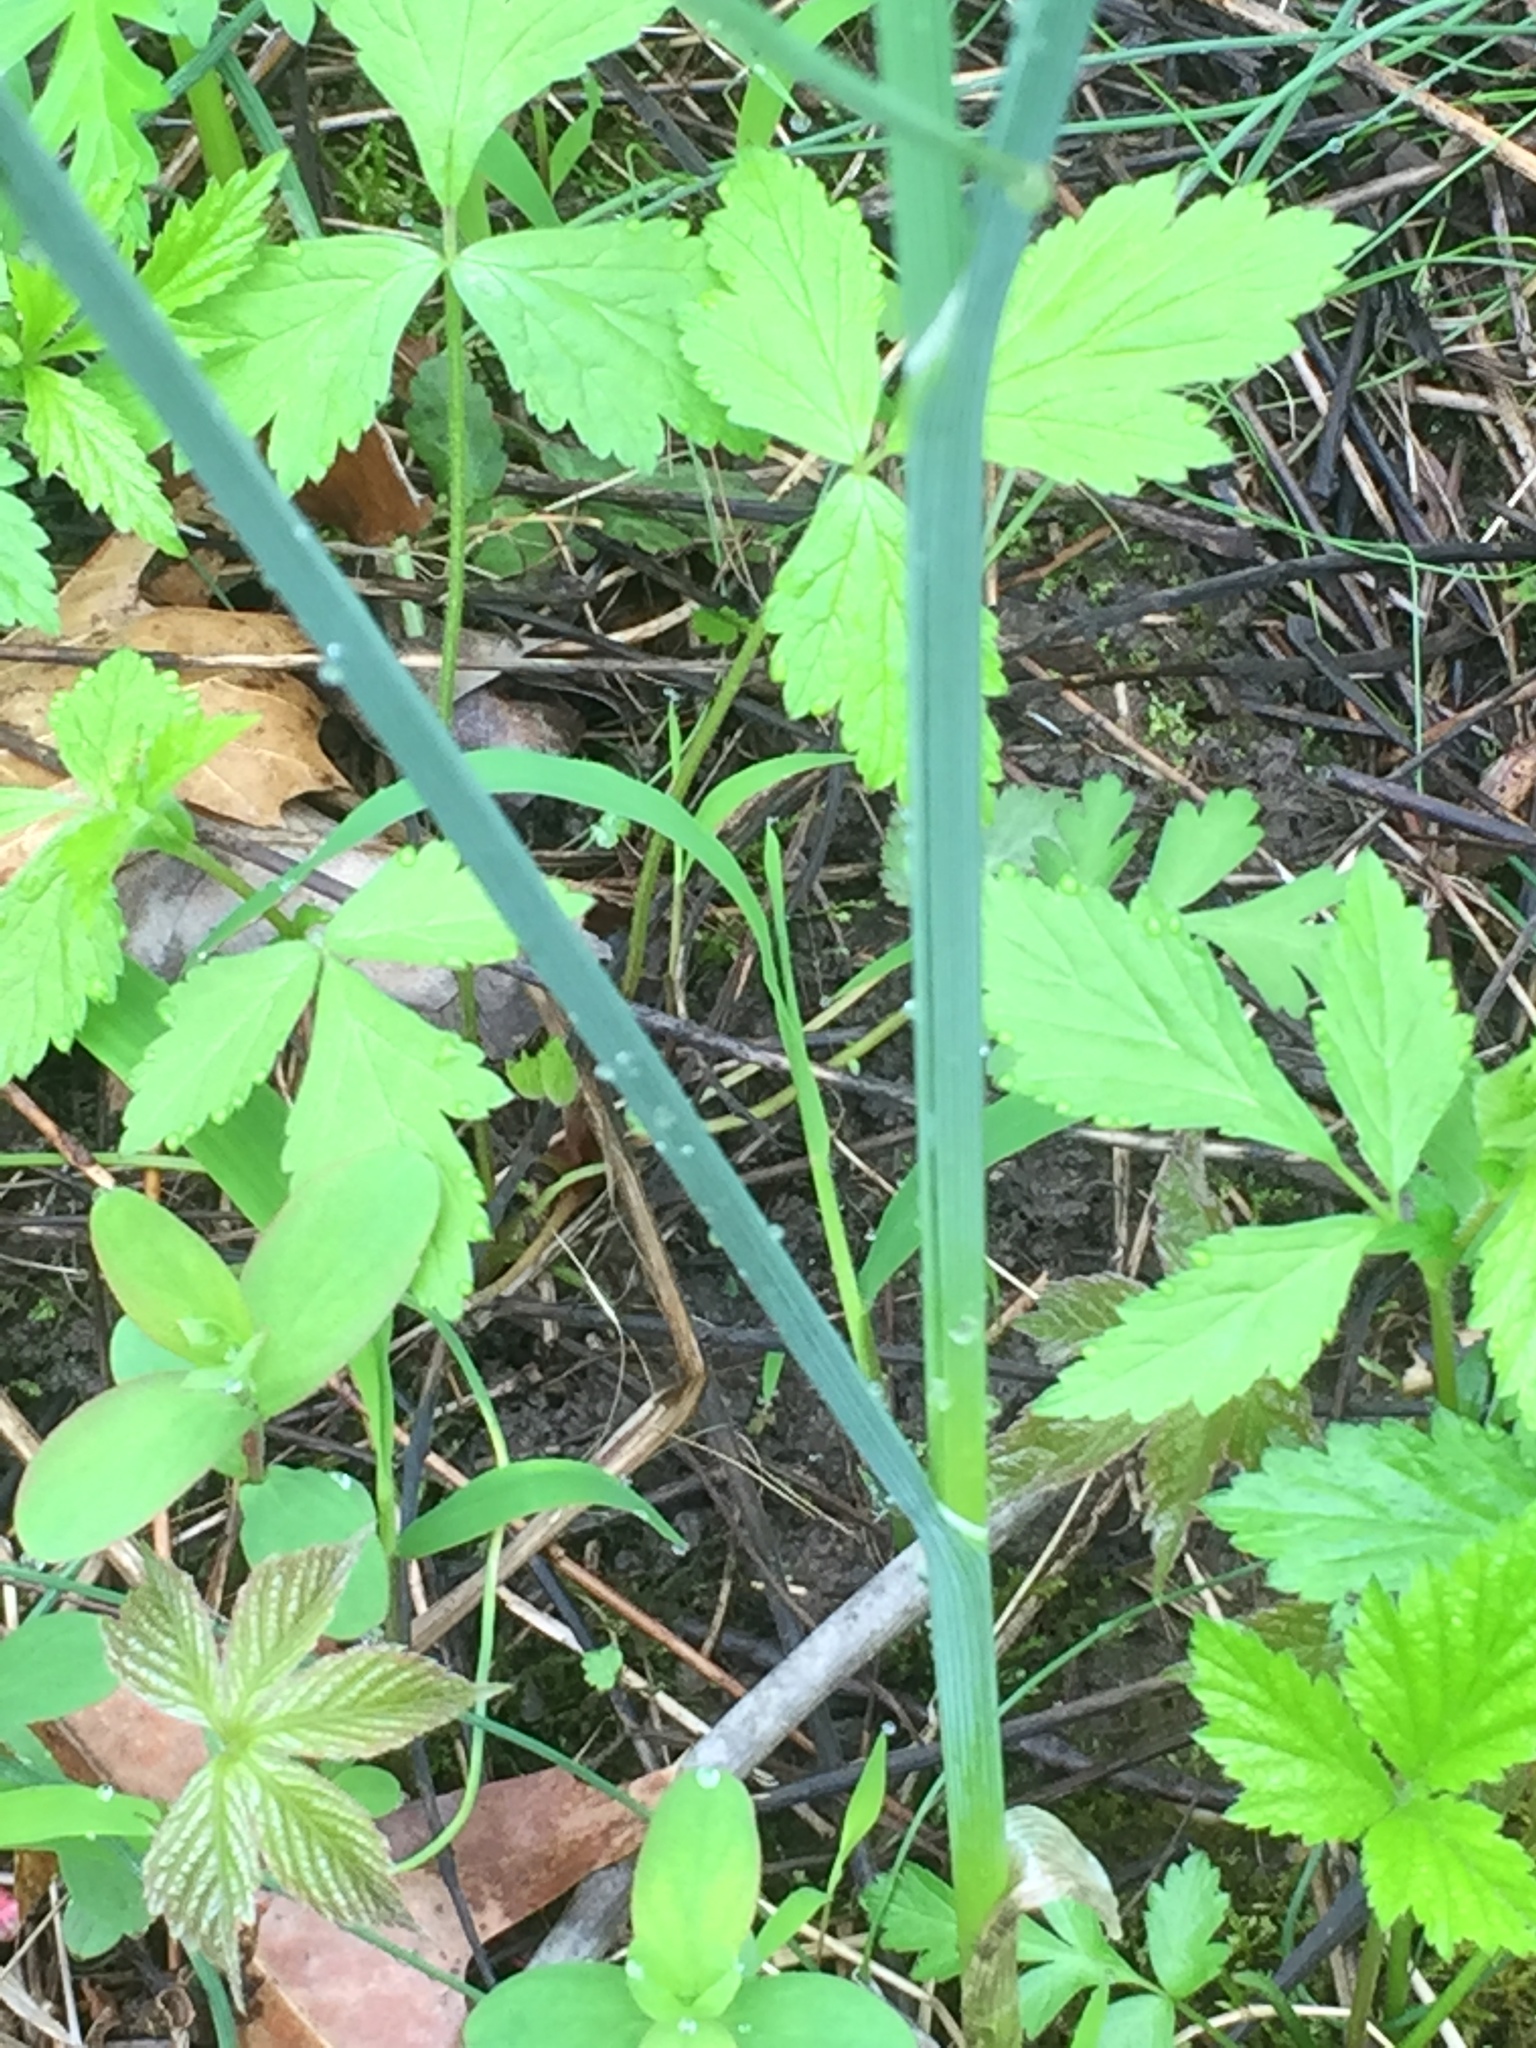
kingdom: Plantae
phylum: Tracheophyta
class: Liliopsida
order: Asparagales
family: Amaryllidaceae
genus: Allium
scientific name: Allium vineale
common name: Crow garlic
